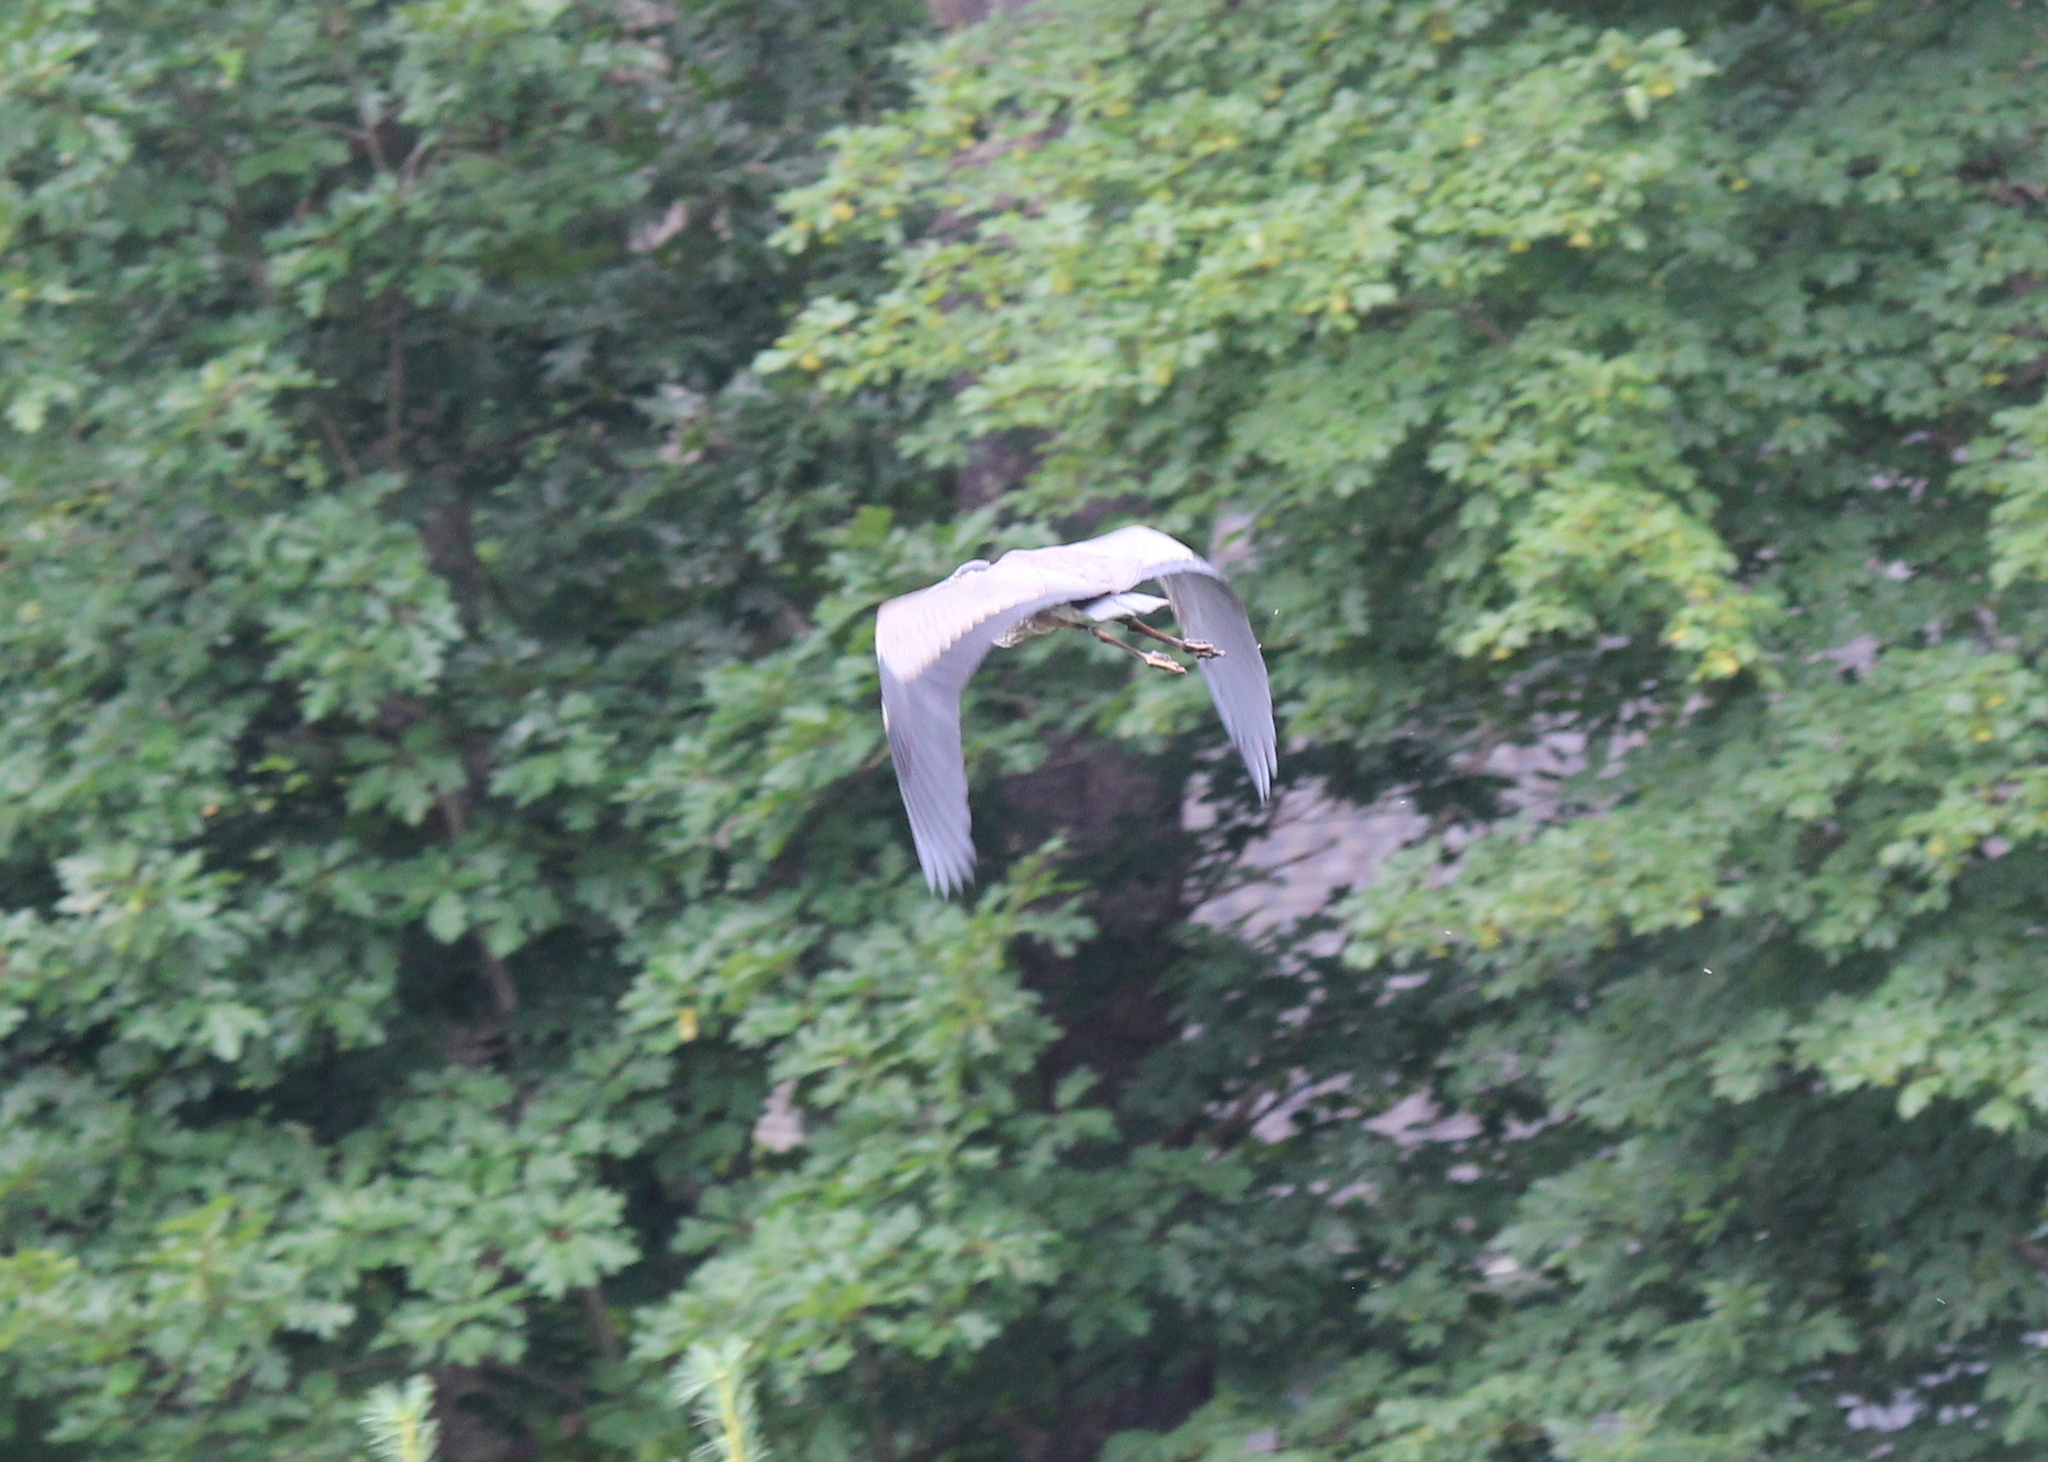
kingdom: Animalia
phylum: Chordata
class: Aves
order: Pelecaniformes
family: Ardeidae
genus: Ardea
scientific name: Ardea herodias
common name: Great blue heron
